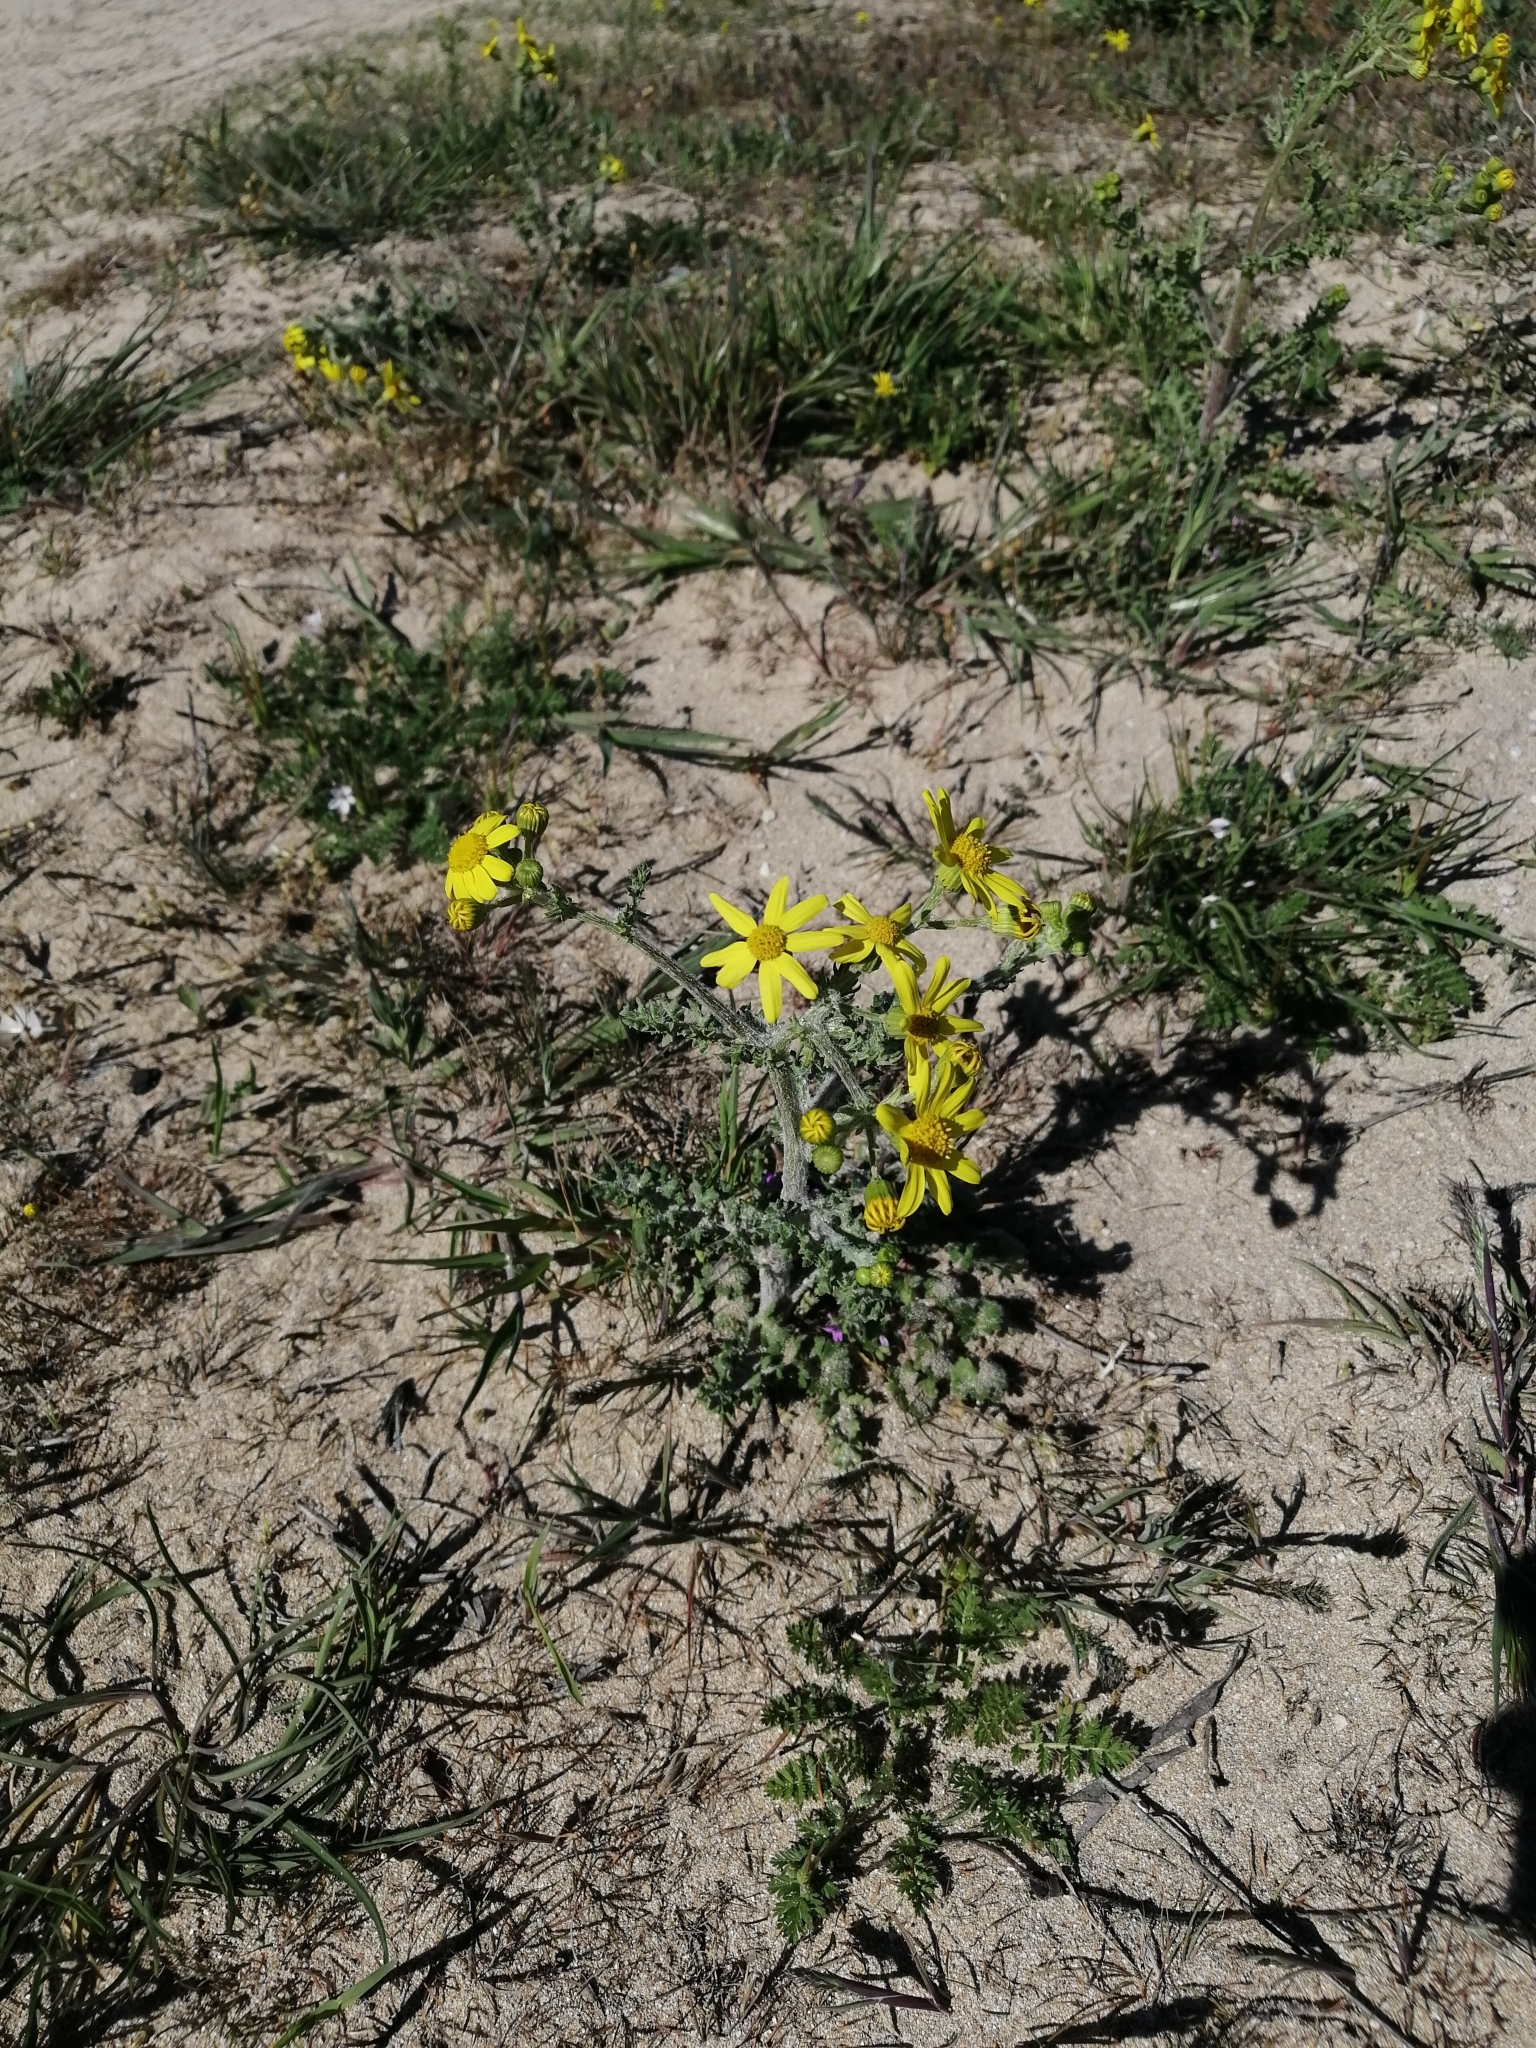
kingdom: Plantae
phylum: Tracheophyta
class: Magnoliopsida
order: Asterales
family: Asteraceae
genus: Senecio
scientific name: Senecio vernalis
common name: Eastern groundsel
